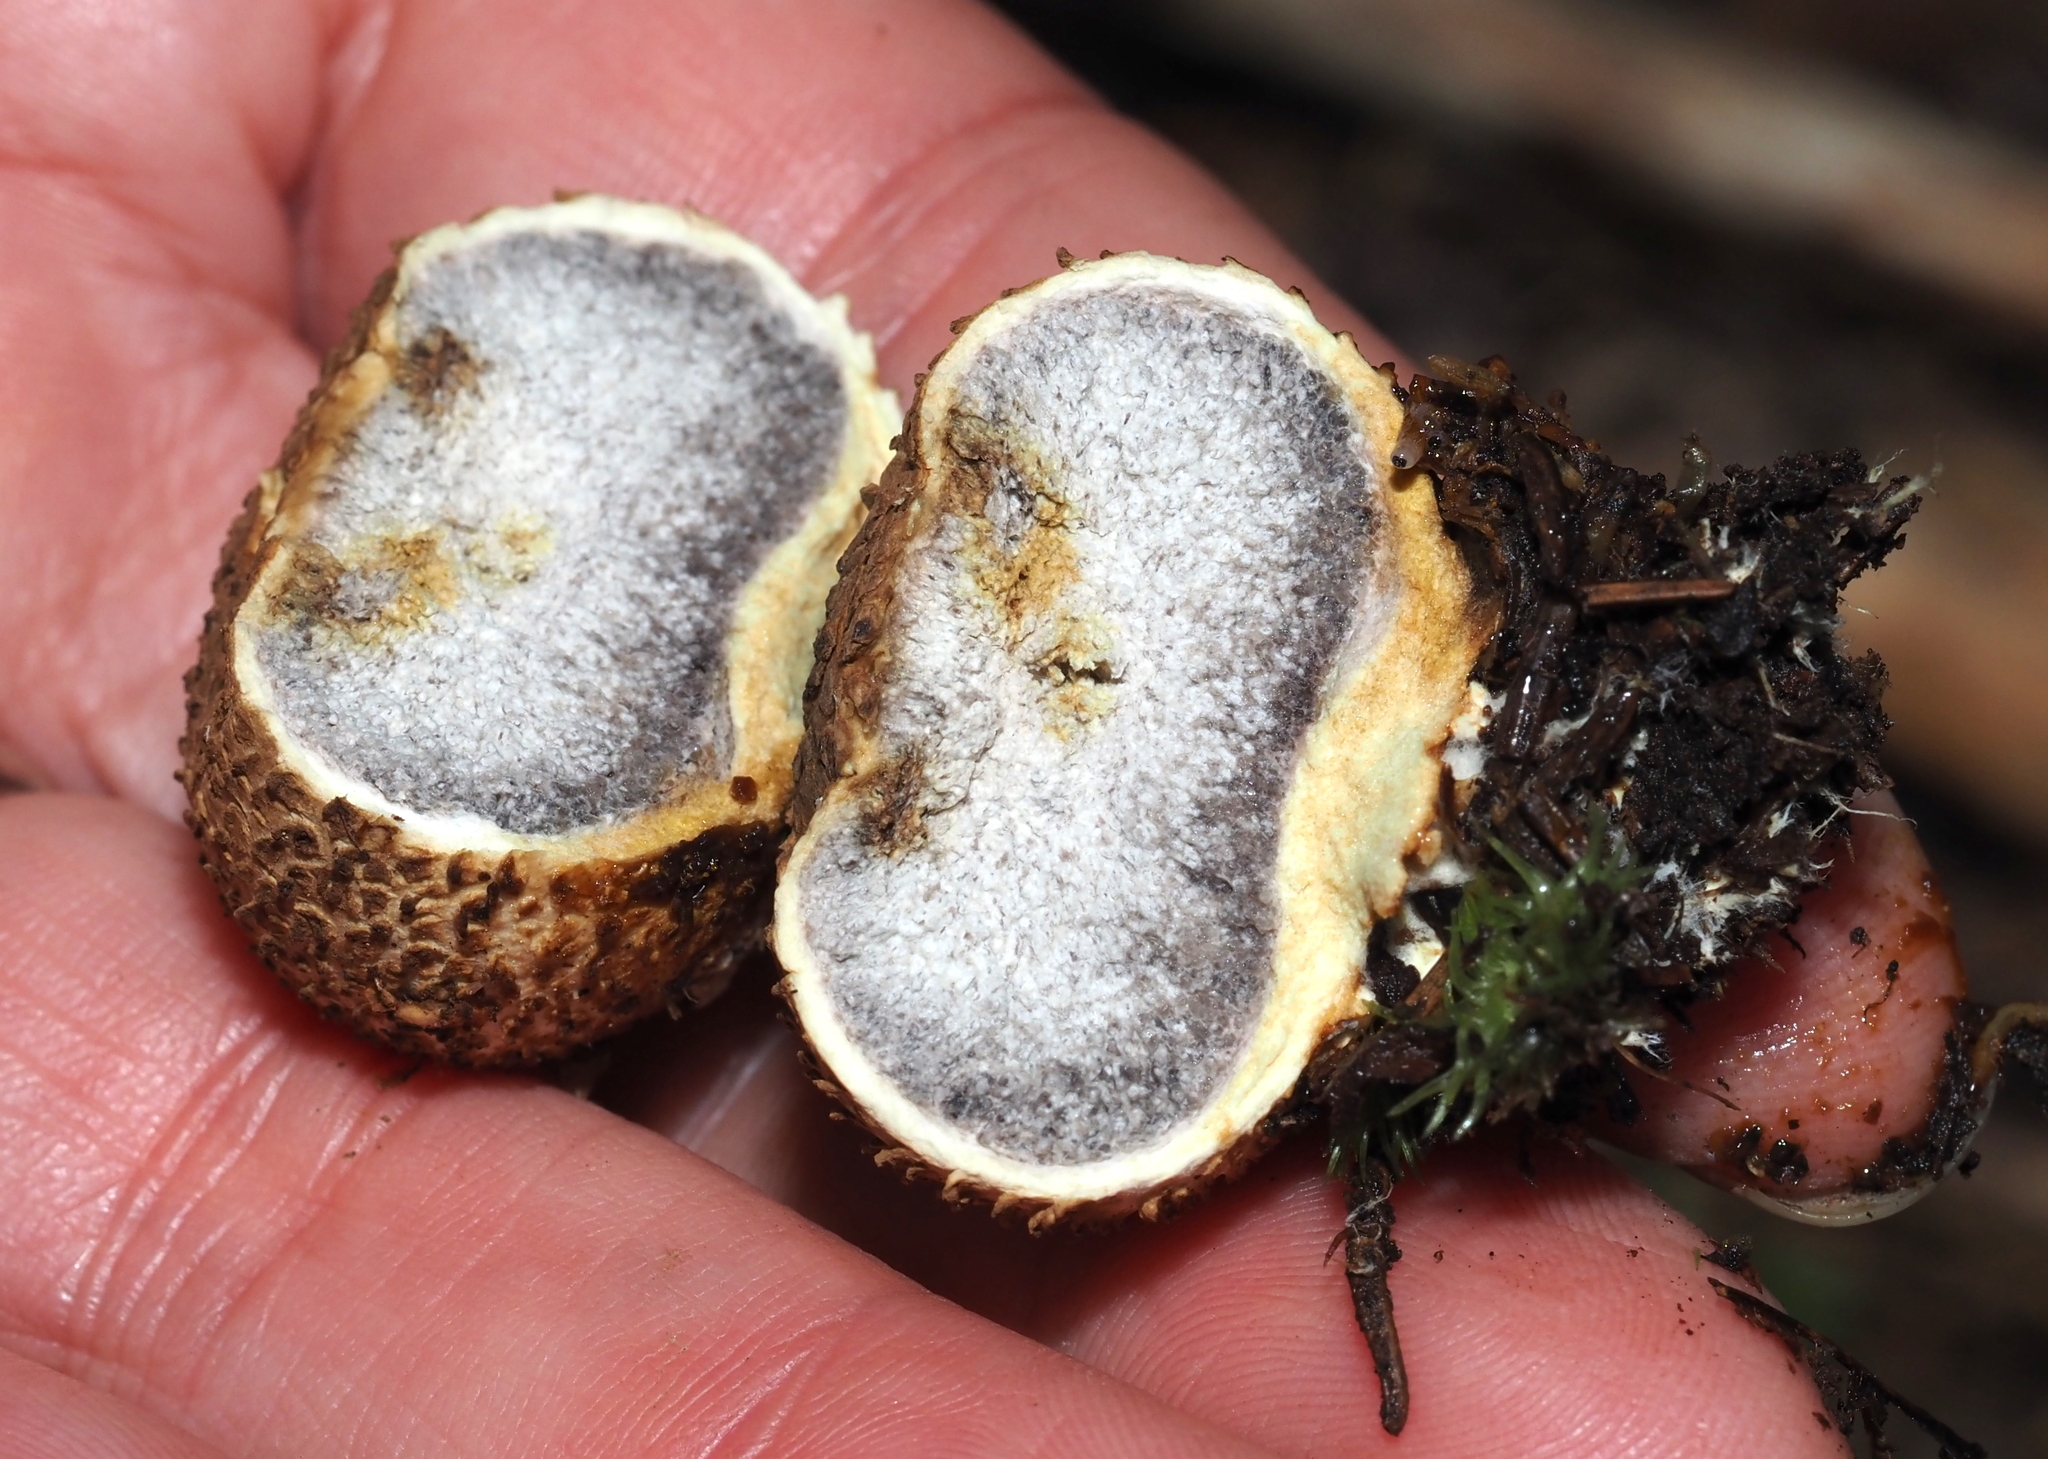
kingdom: Fungi
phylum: Basidiomycota
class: Agaricomycetes
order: Boletales
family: Sclerodermataceae
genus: Scleroderma
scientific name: Scleroderma areolatum
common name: Leopard earthball
